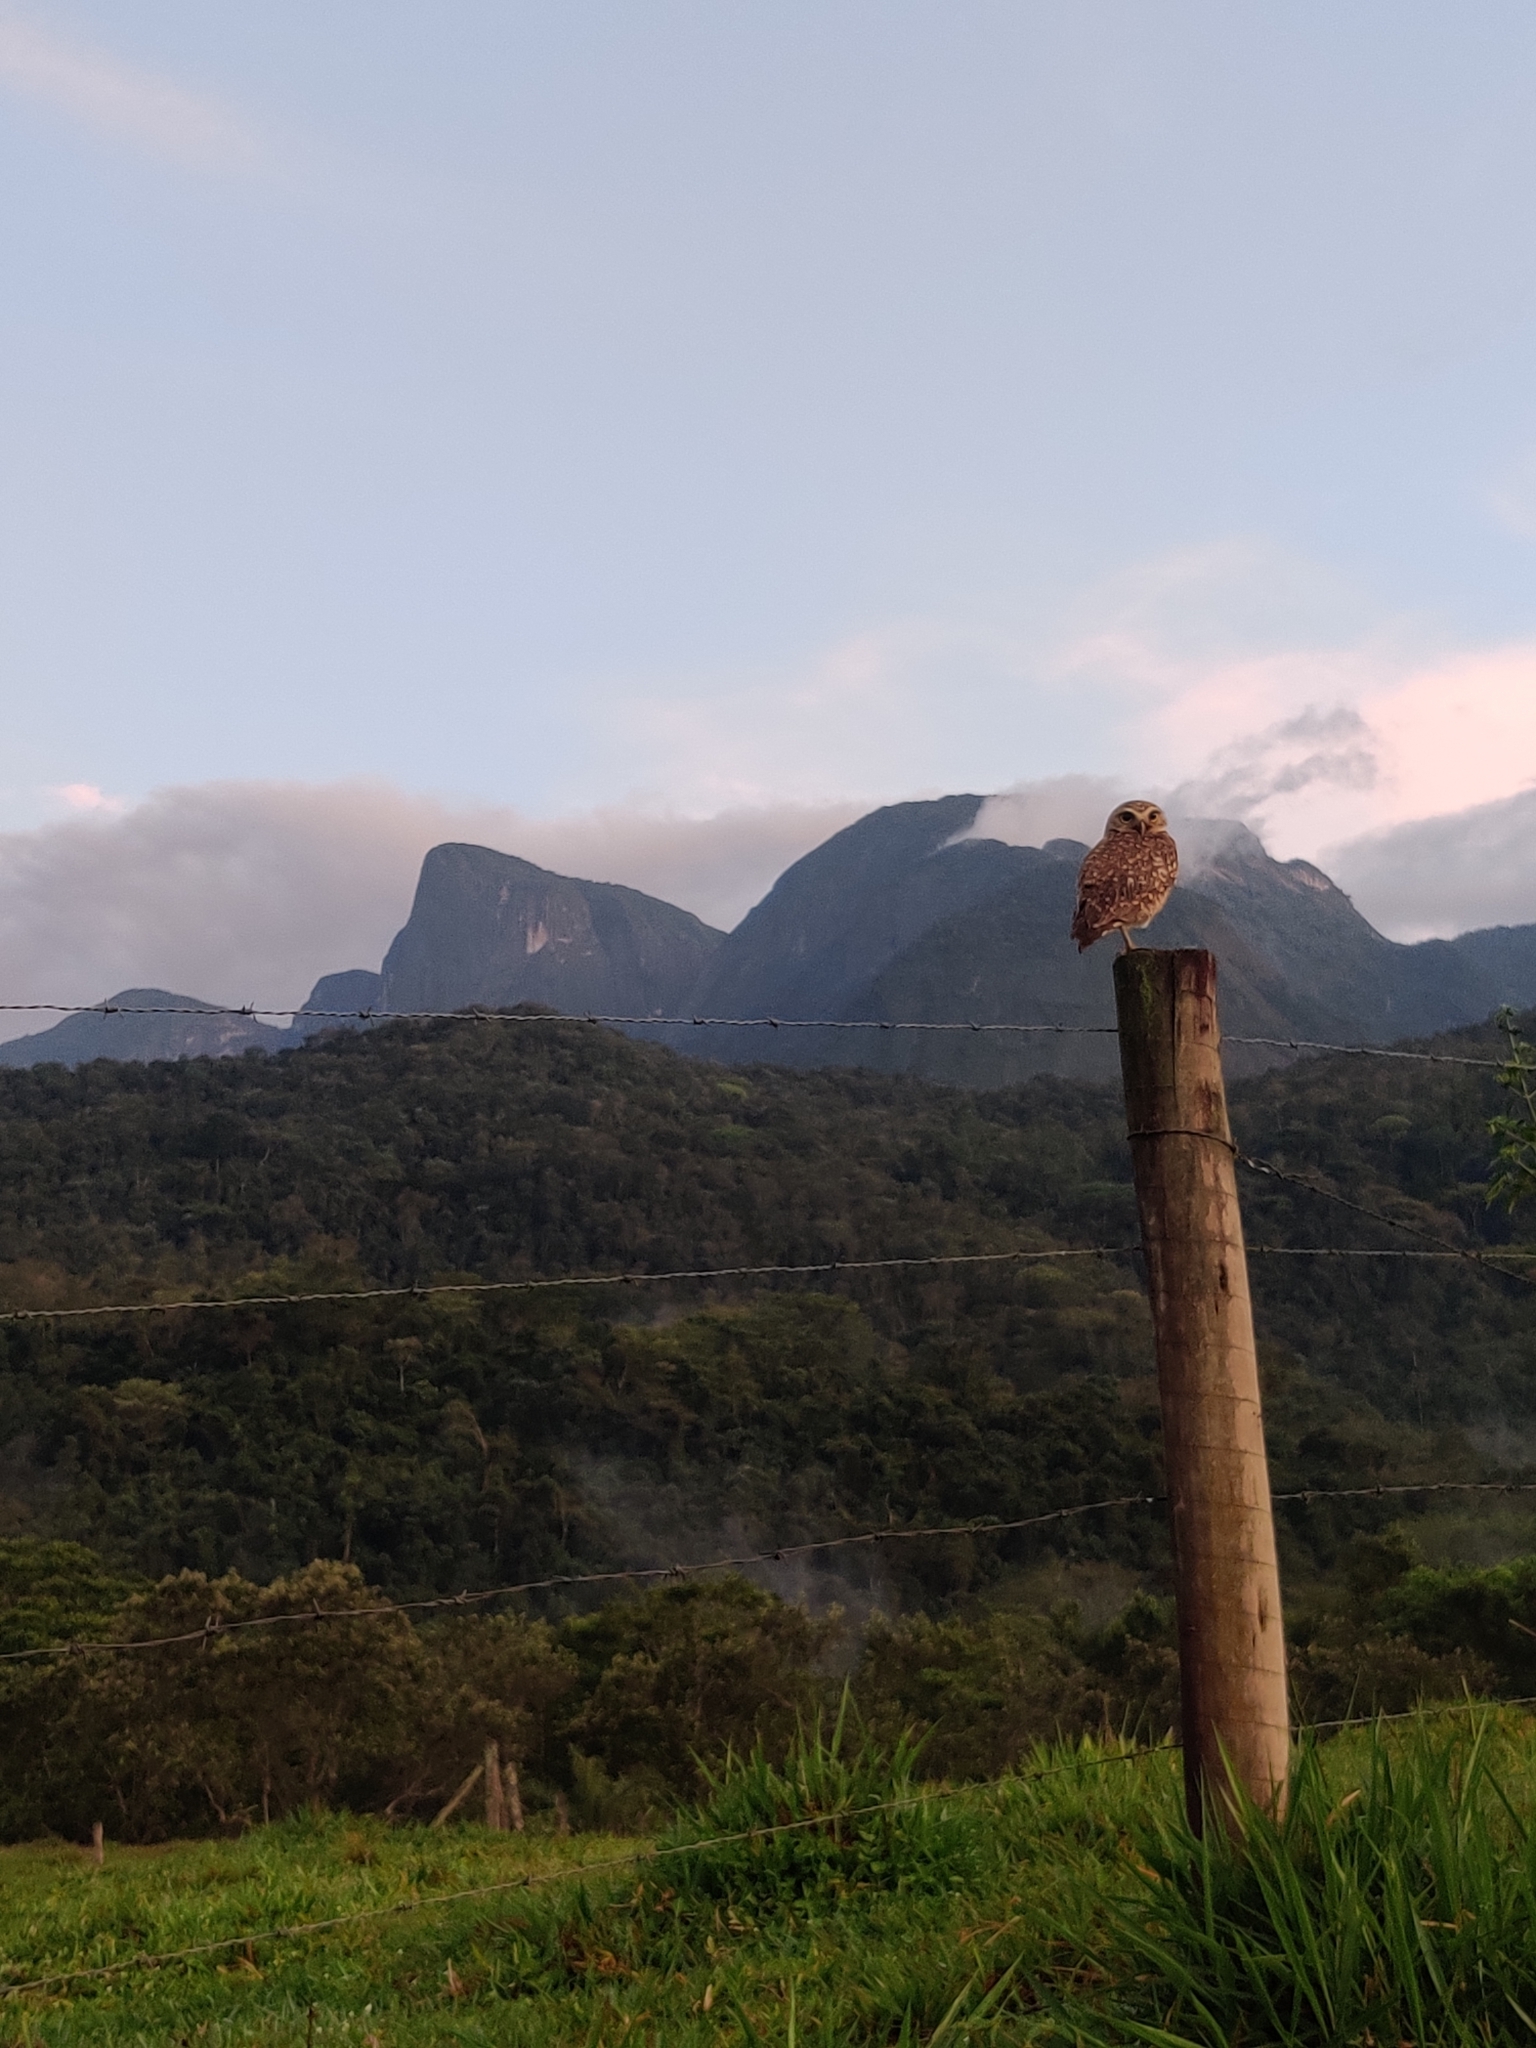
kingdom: Animalia
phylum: Chordata
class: Aves
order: Strigiformes
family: Strigidae
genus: Athene
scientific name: Athene cunicularia
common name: Burrowing owl
